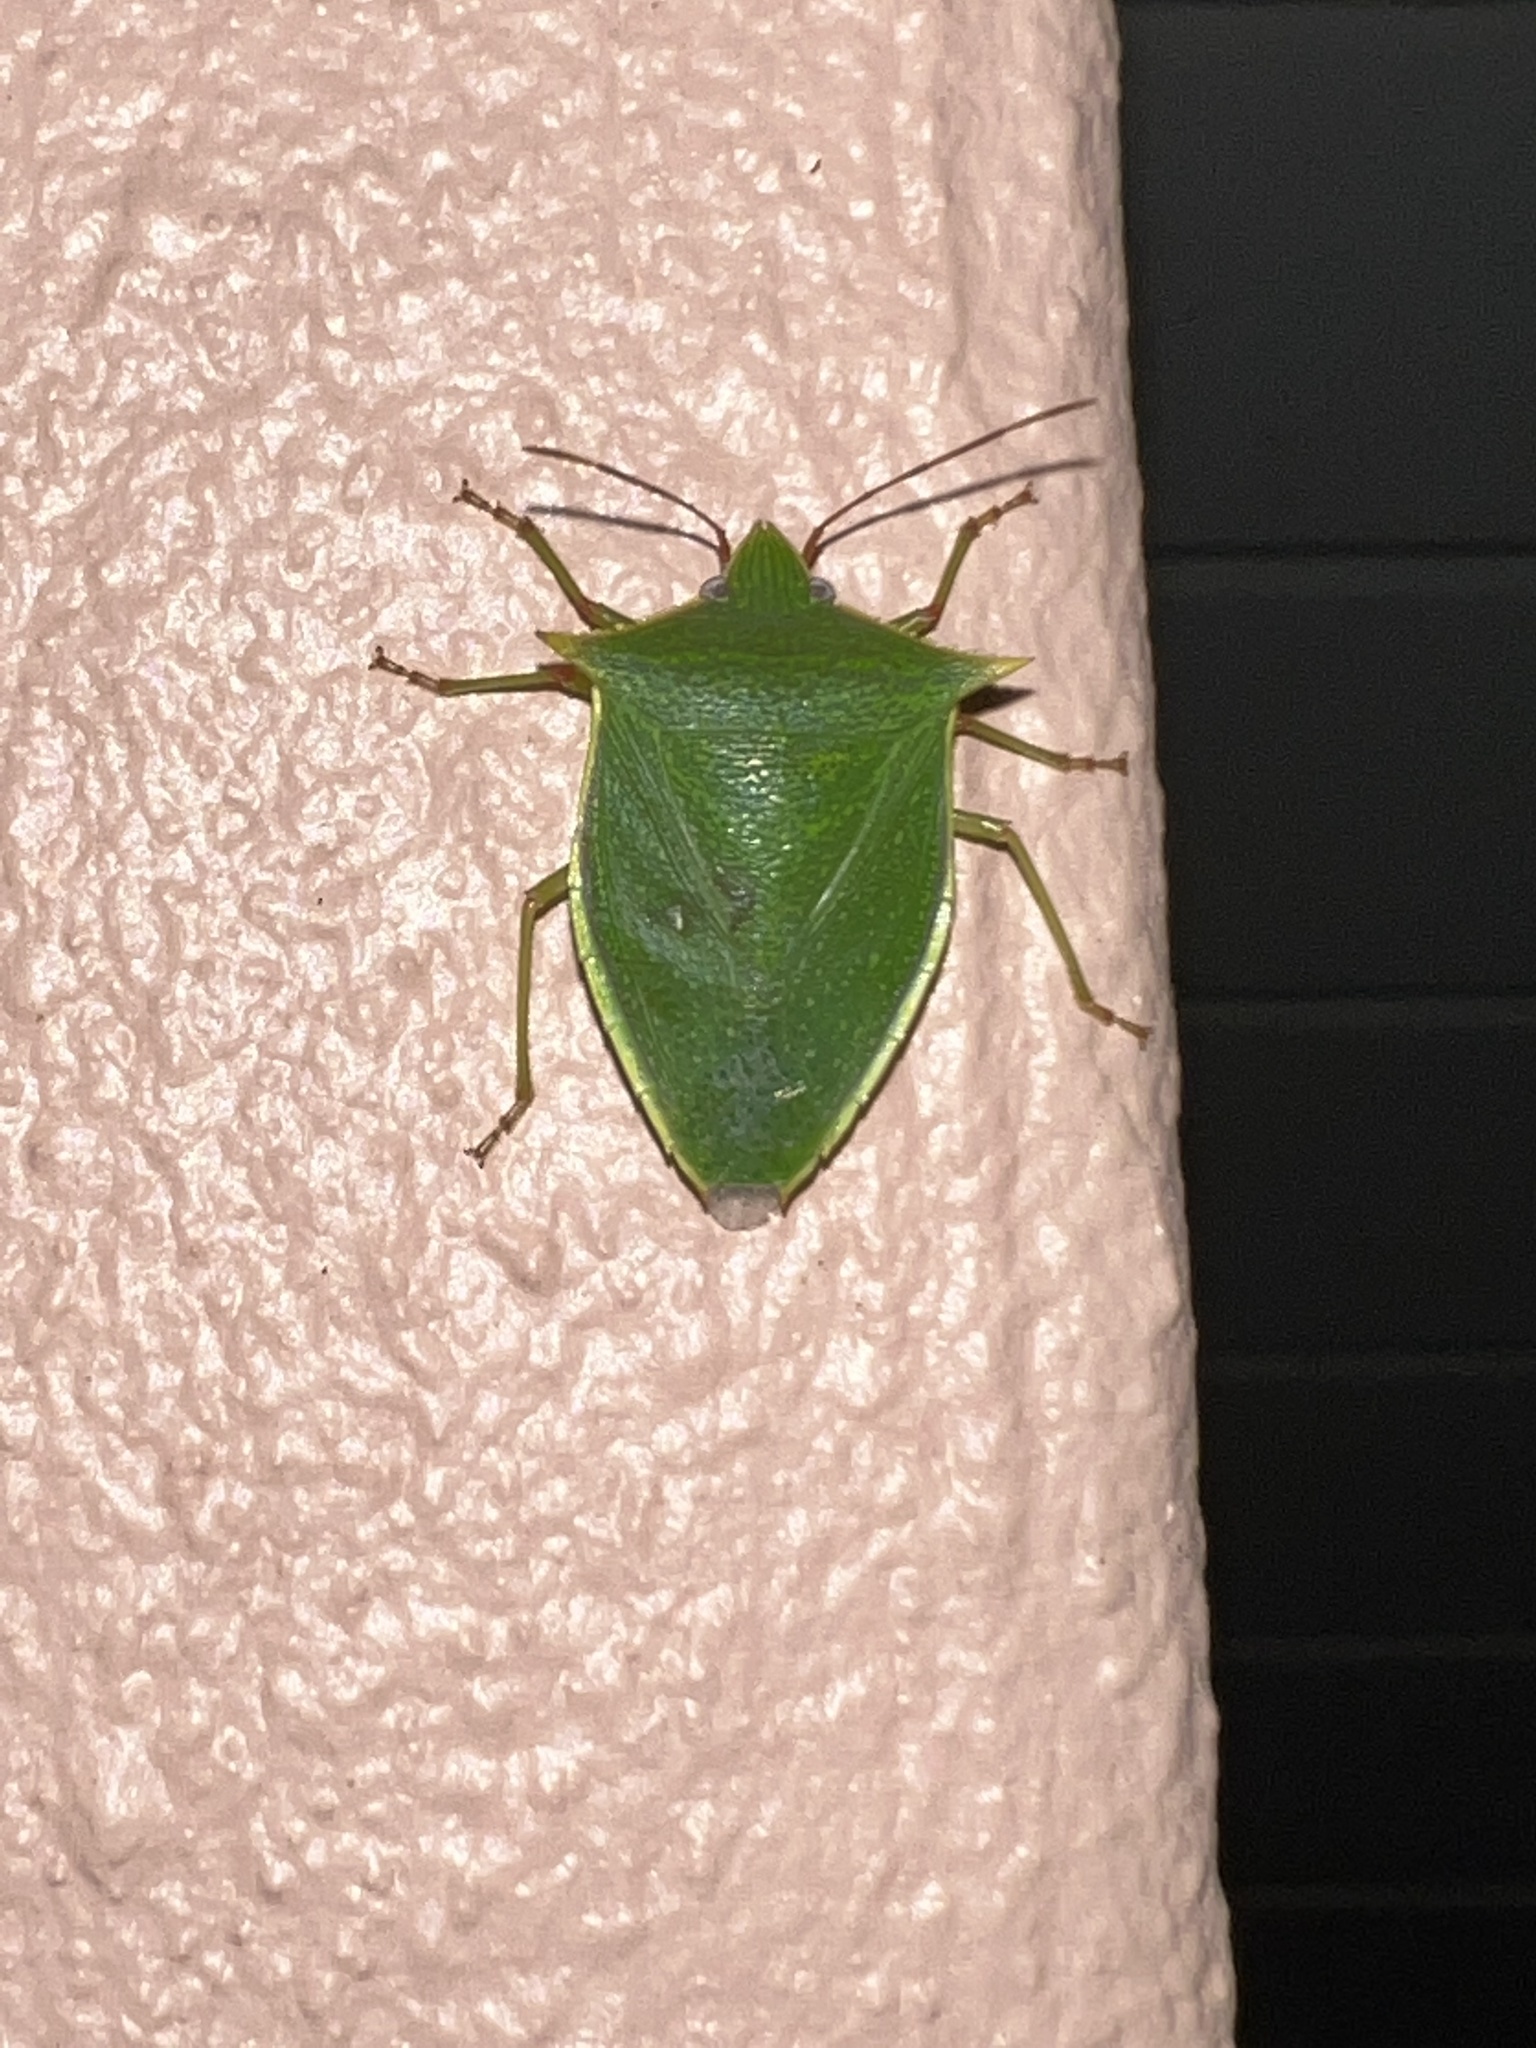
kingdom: Animalia
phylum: Arthropoda
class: Insecta
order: Hemiptera
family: Pentatomidae
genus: Loxa
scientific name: Loxa viridis
